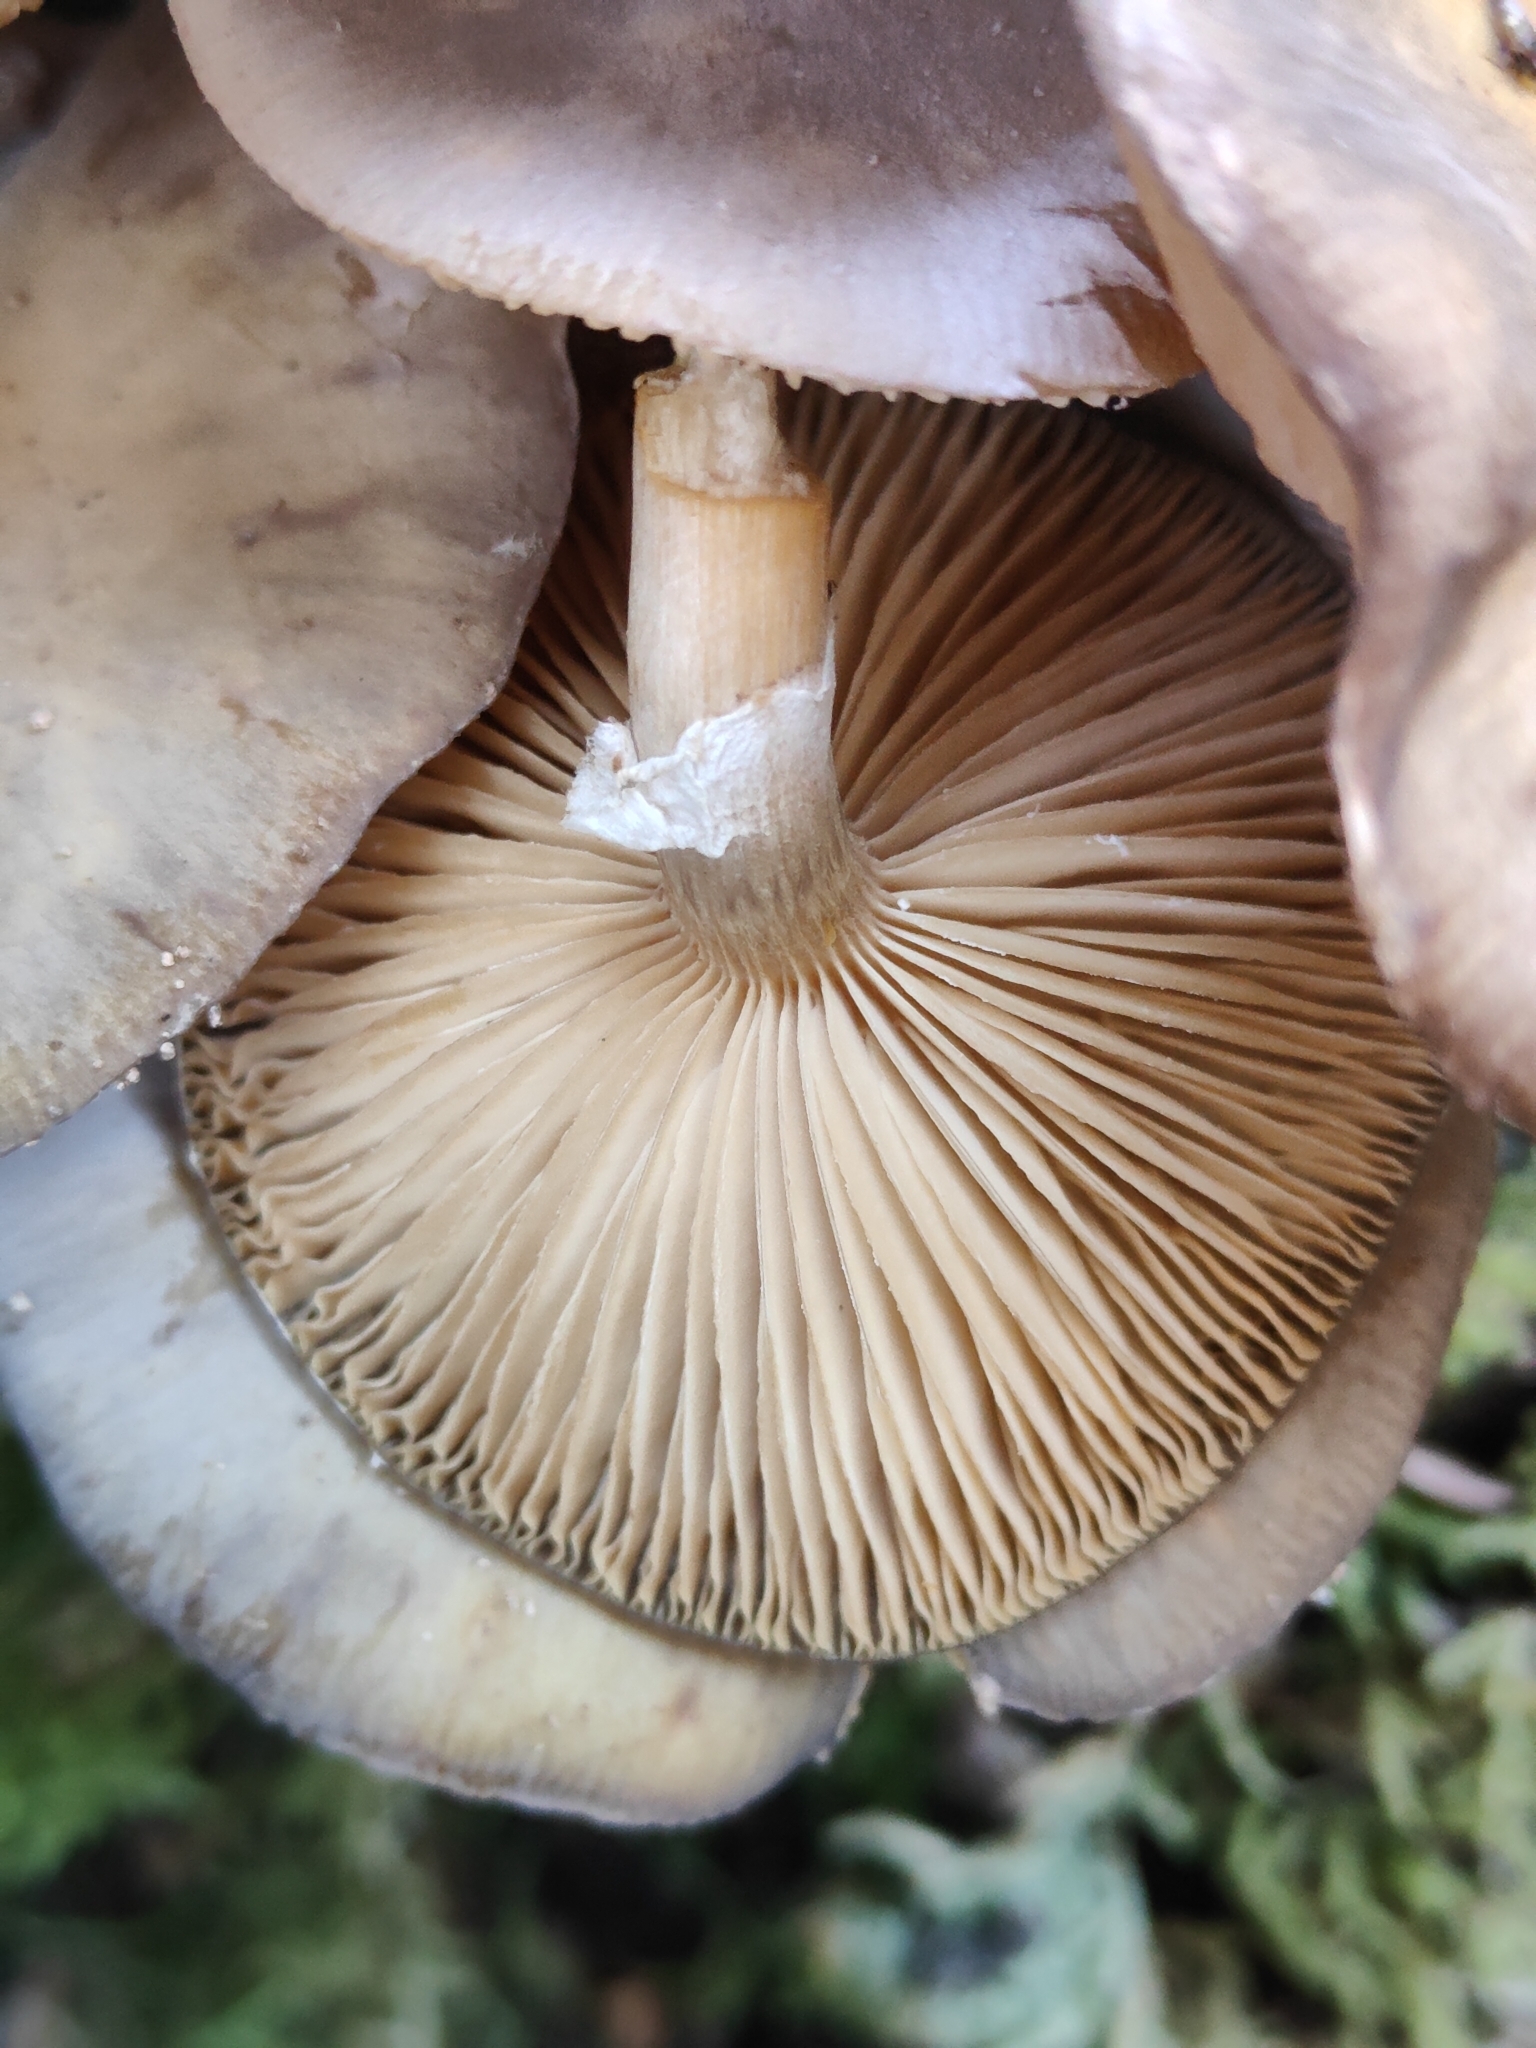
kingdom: Fungi
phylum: Basidiomycota
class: Agaricomycetes
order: Agaricales
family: Physalacriaceae
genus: Armillaria
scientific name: Armillaria novae-zelandiae
